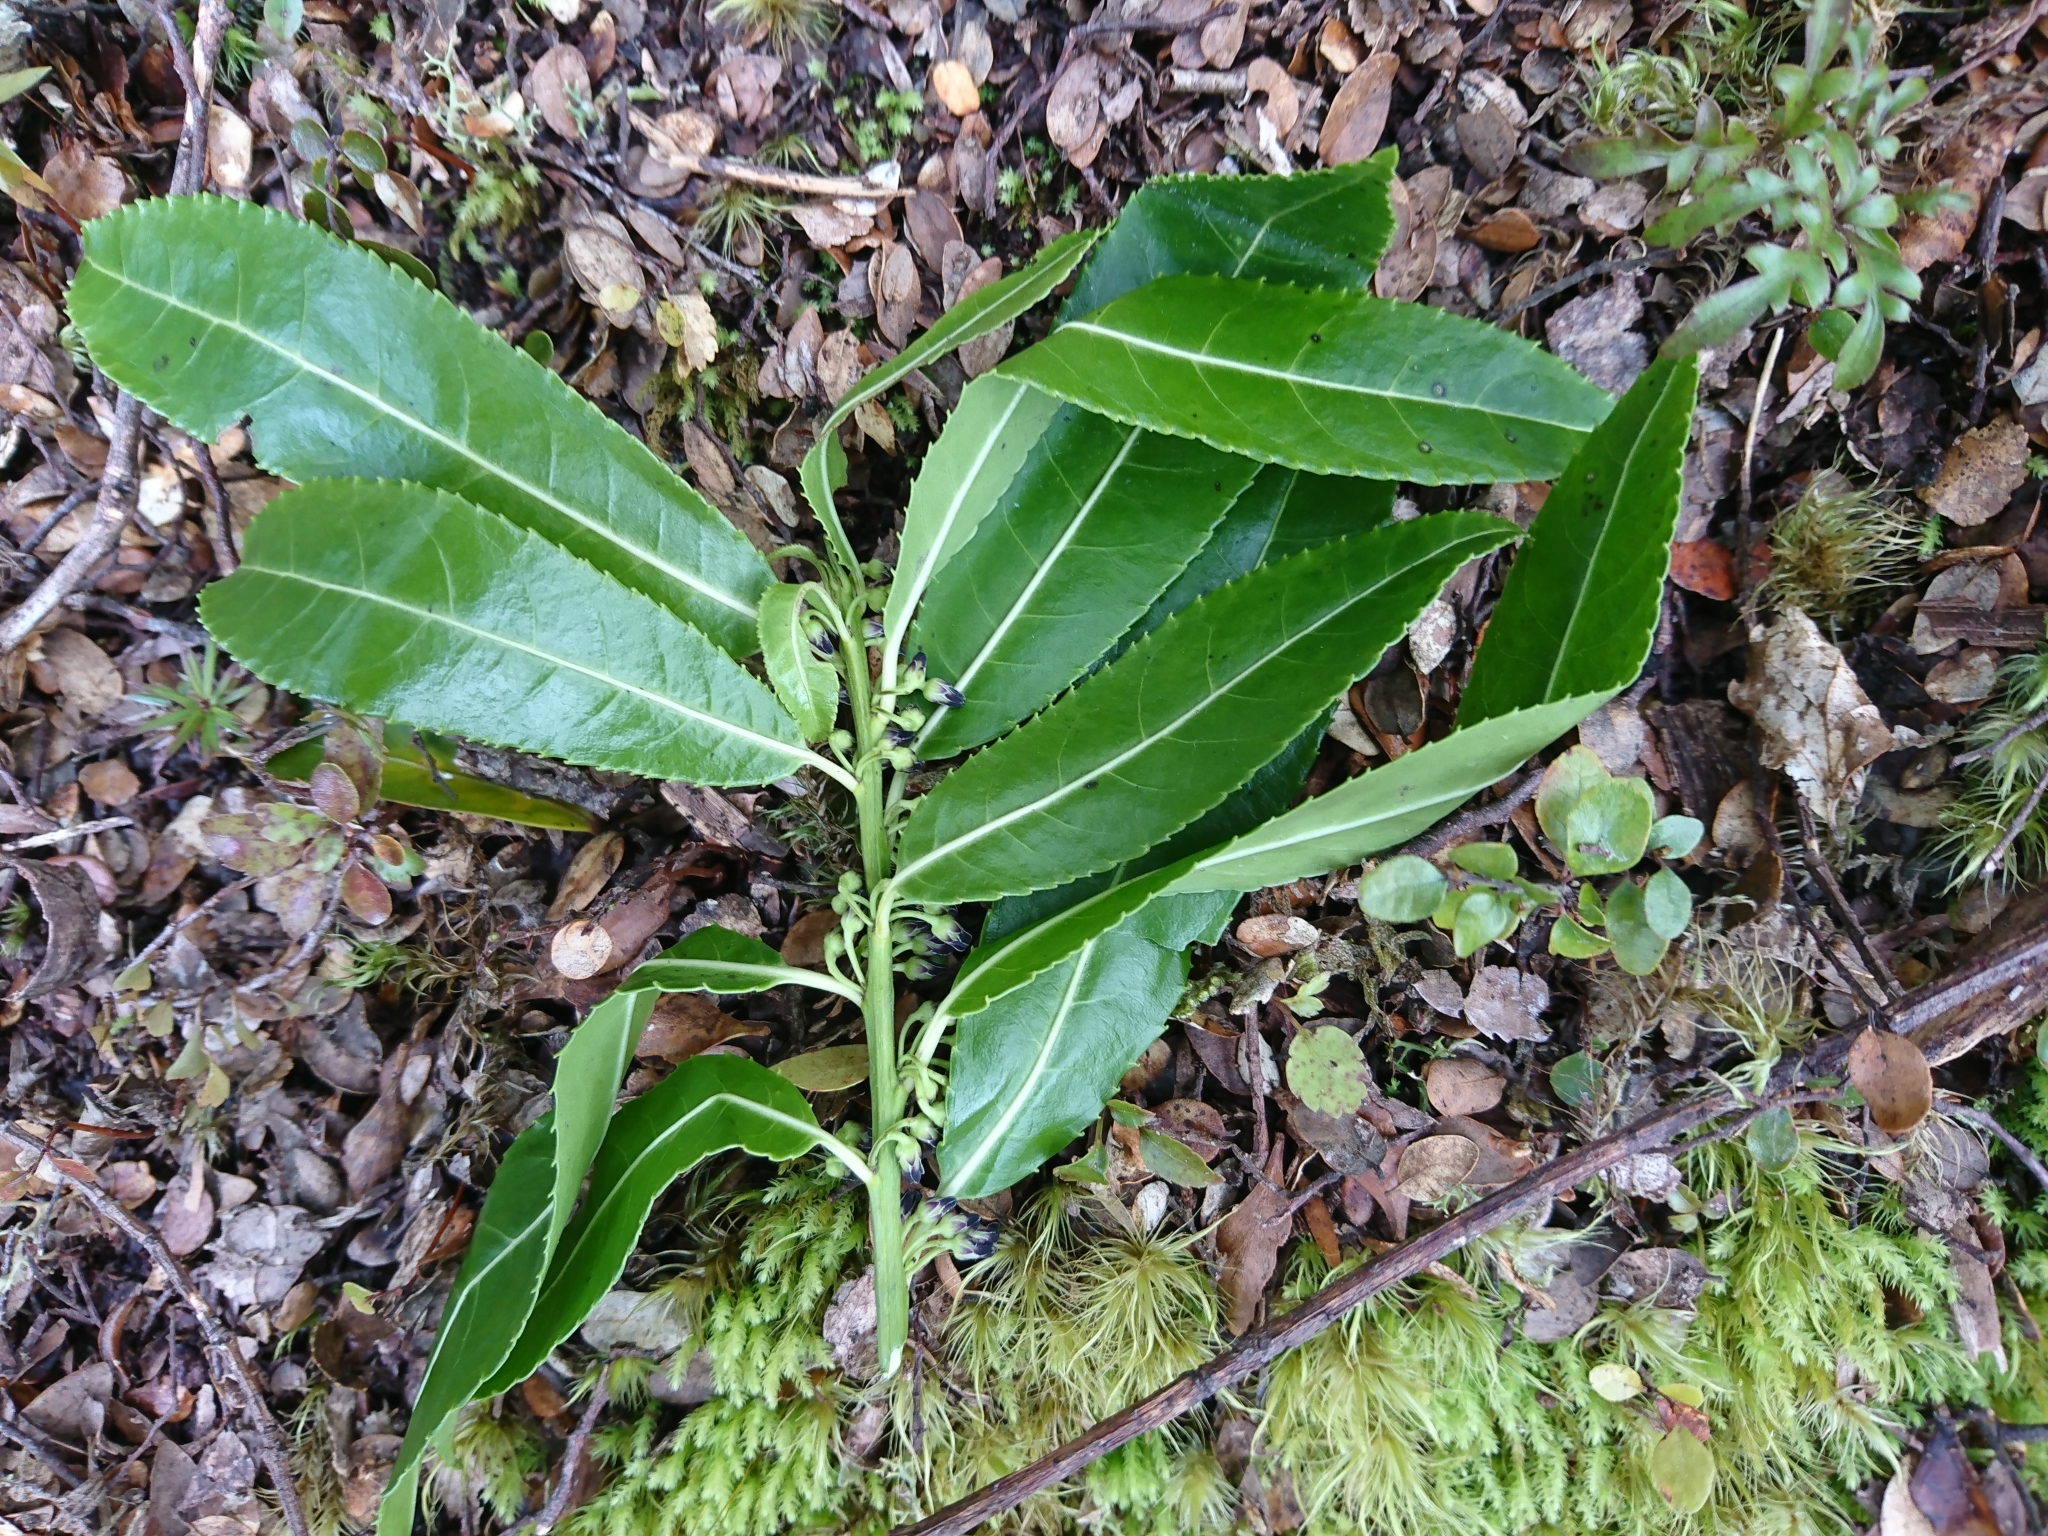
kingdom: Plantae
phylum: Tracheophyta
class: Magnoliopsida
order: Malpighiales
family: Violaceae
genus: Melicytus
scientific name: Melicytus lanceolatus
